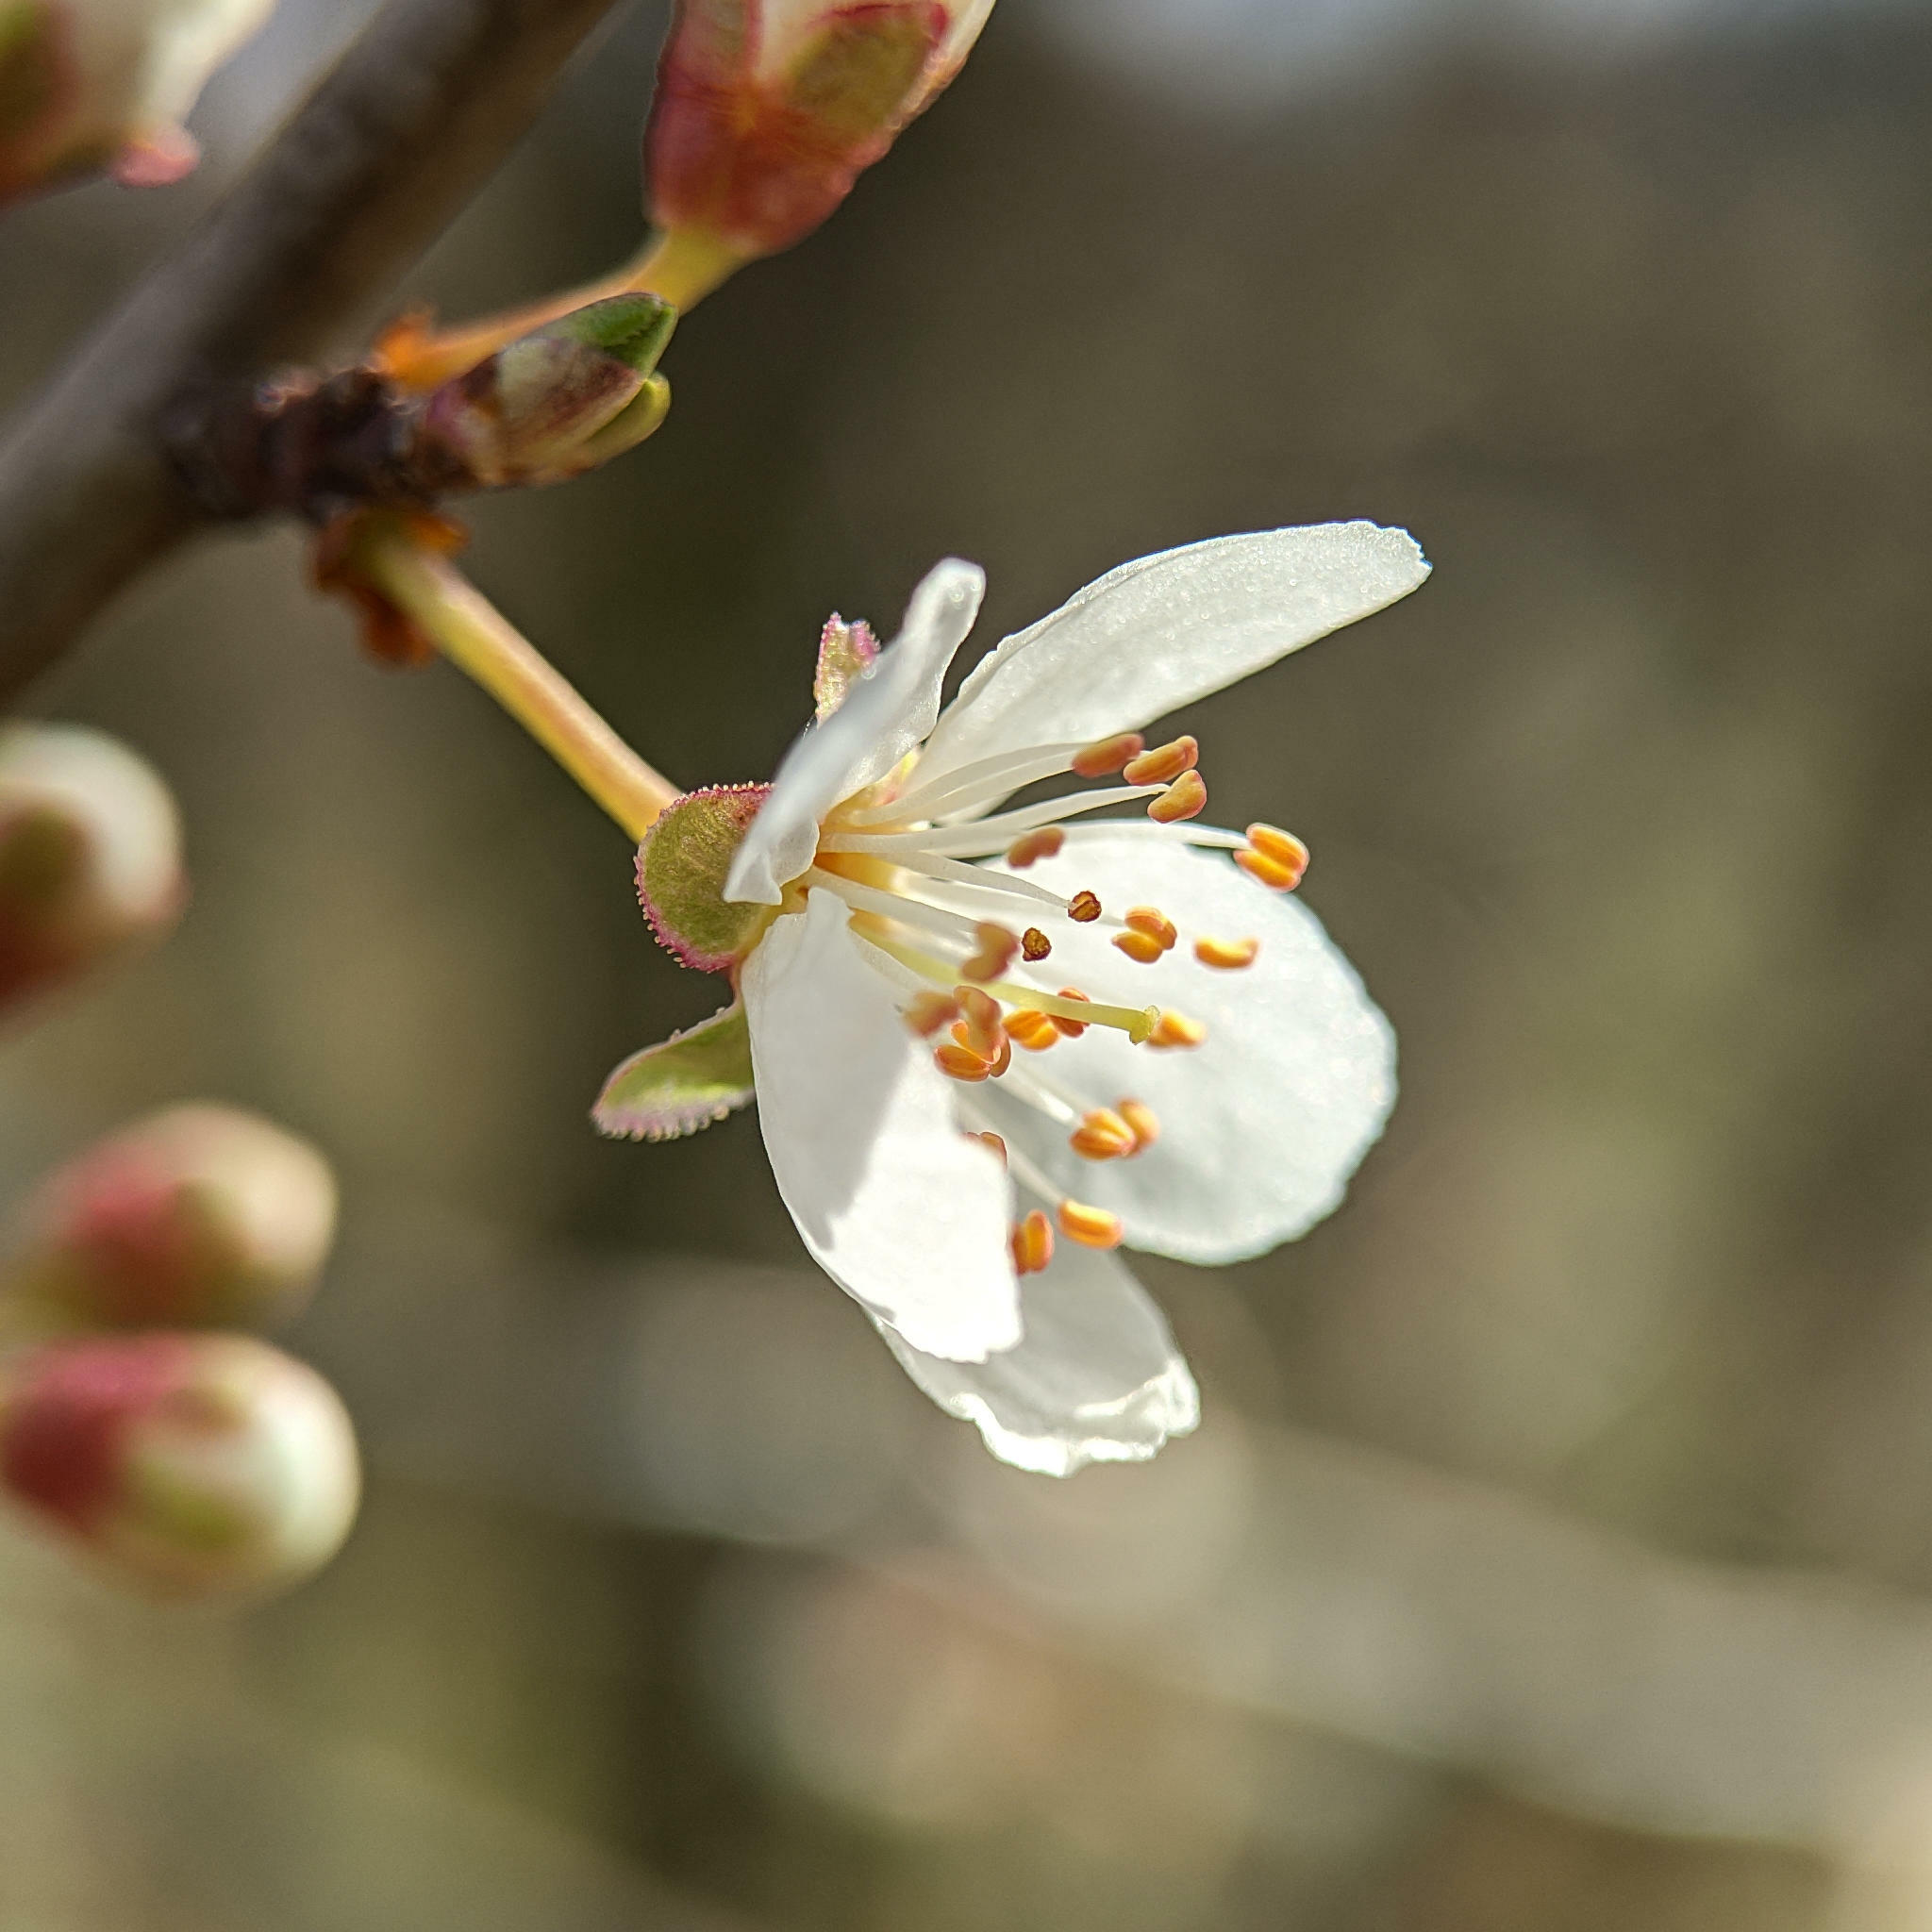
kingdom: Plantae
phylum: Tracheophyta
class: Magnoliopsida
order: Rosales
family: Rosaceae
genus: Prunus
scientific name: Prunus cerasifera
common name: Cherry plum
